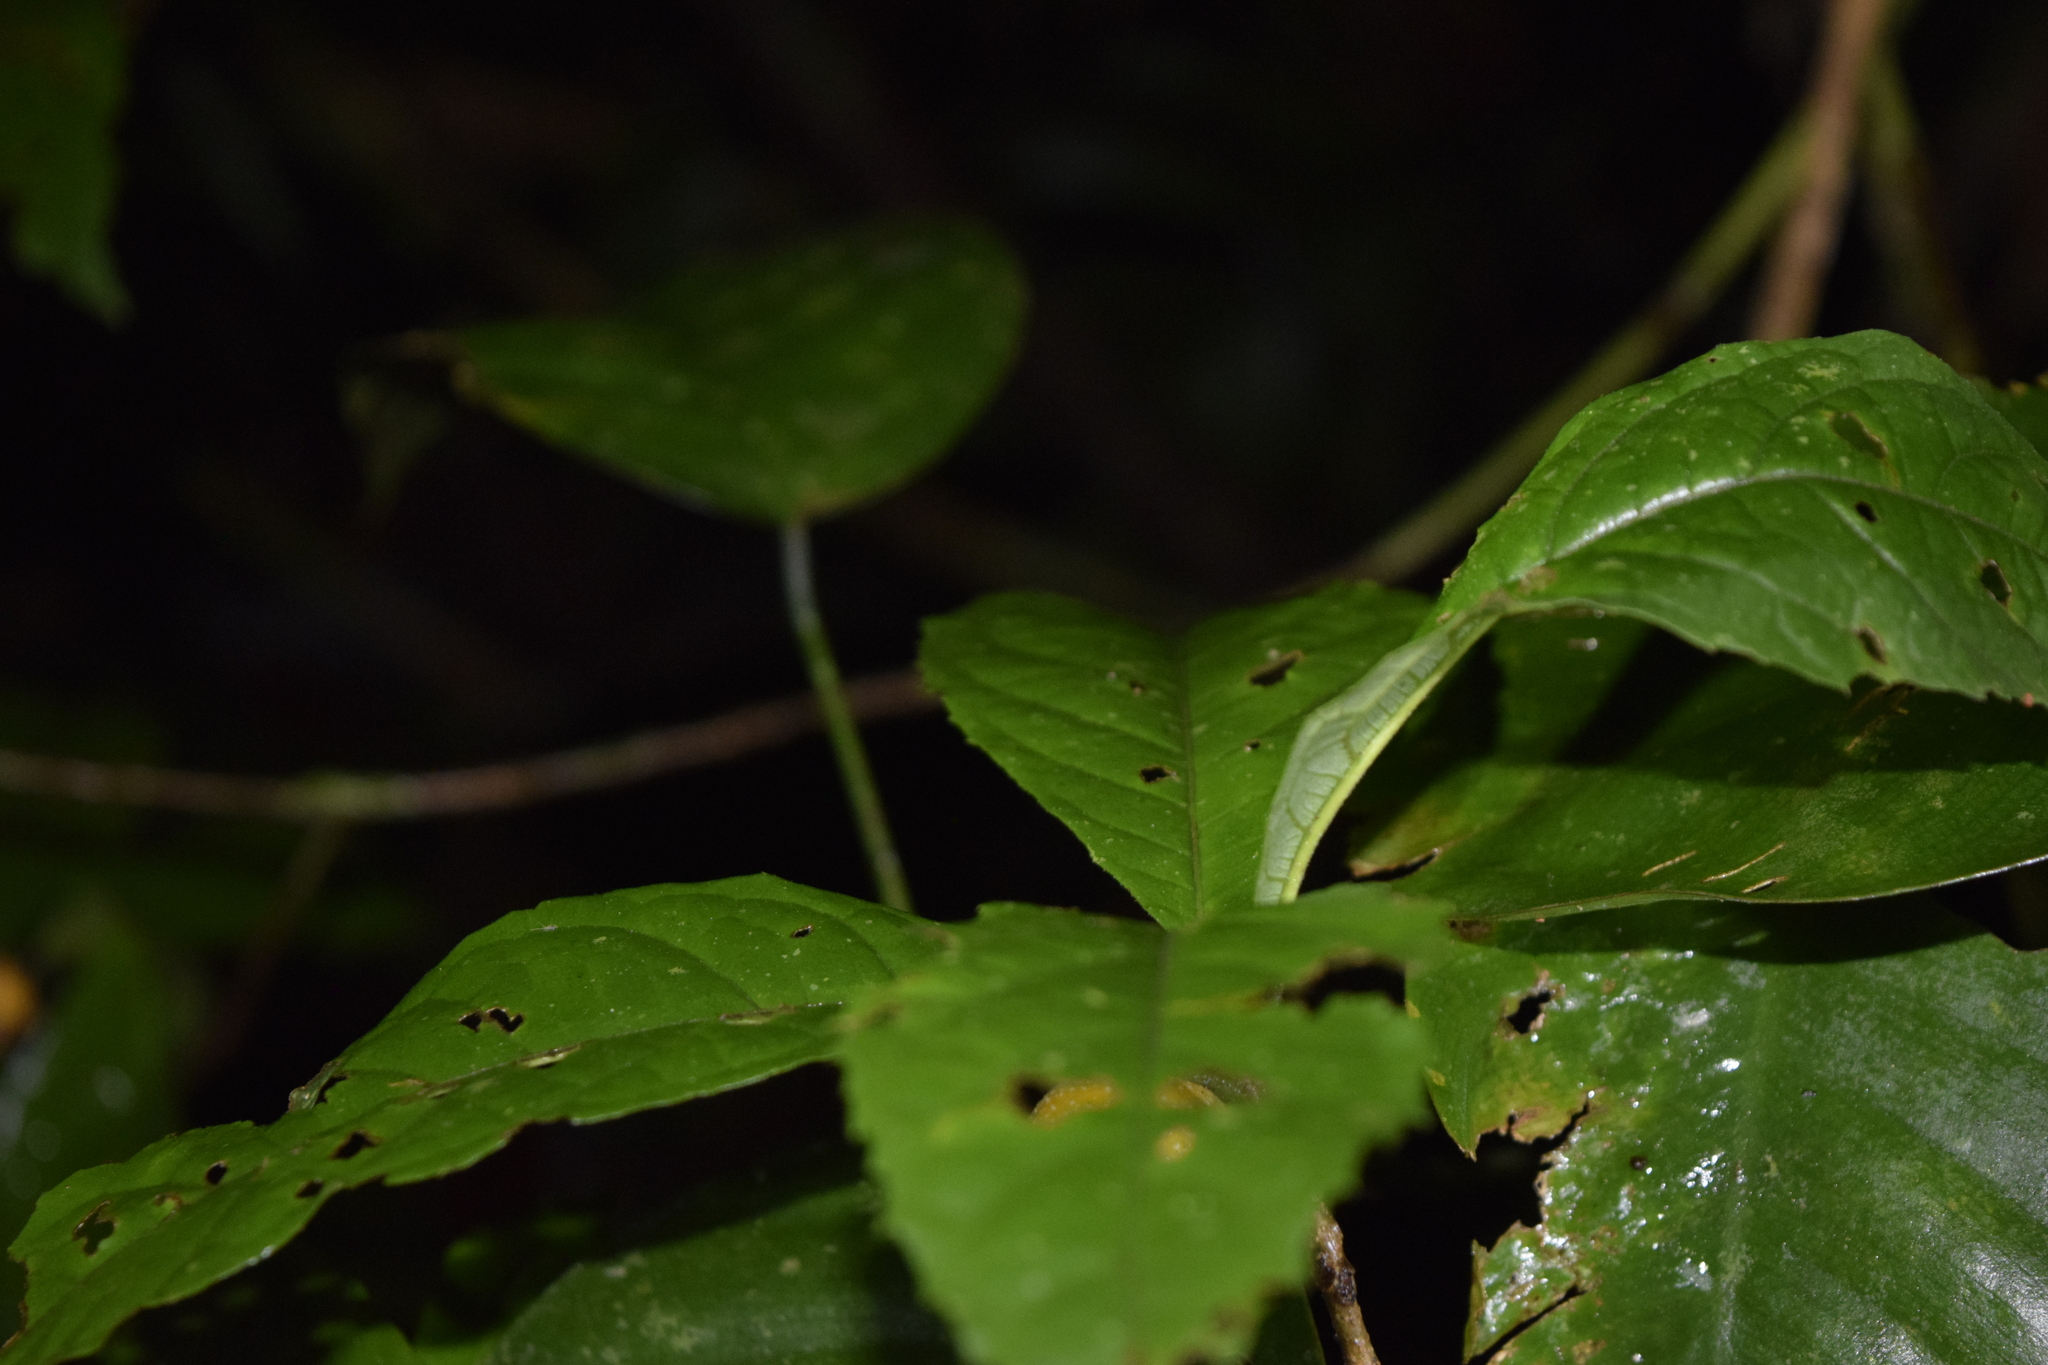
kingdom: Plantae
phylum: Tracheophyta
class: Magnoliopsida
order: Malpighiales
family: Achariaceae
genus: Mayna
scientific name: Mayna yasuniana
